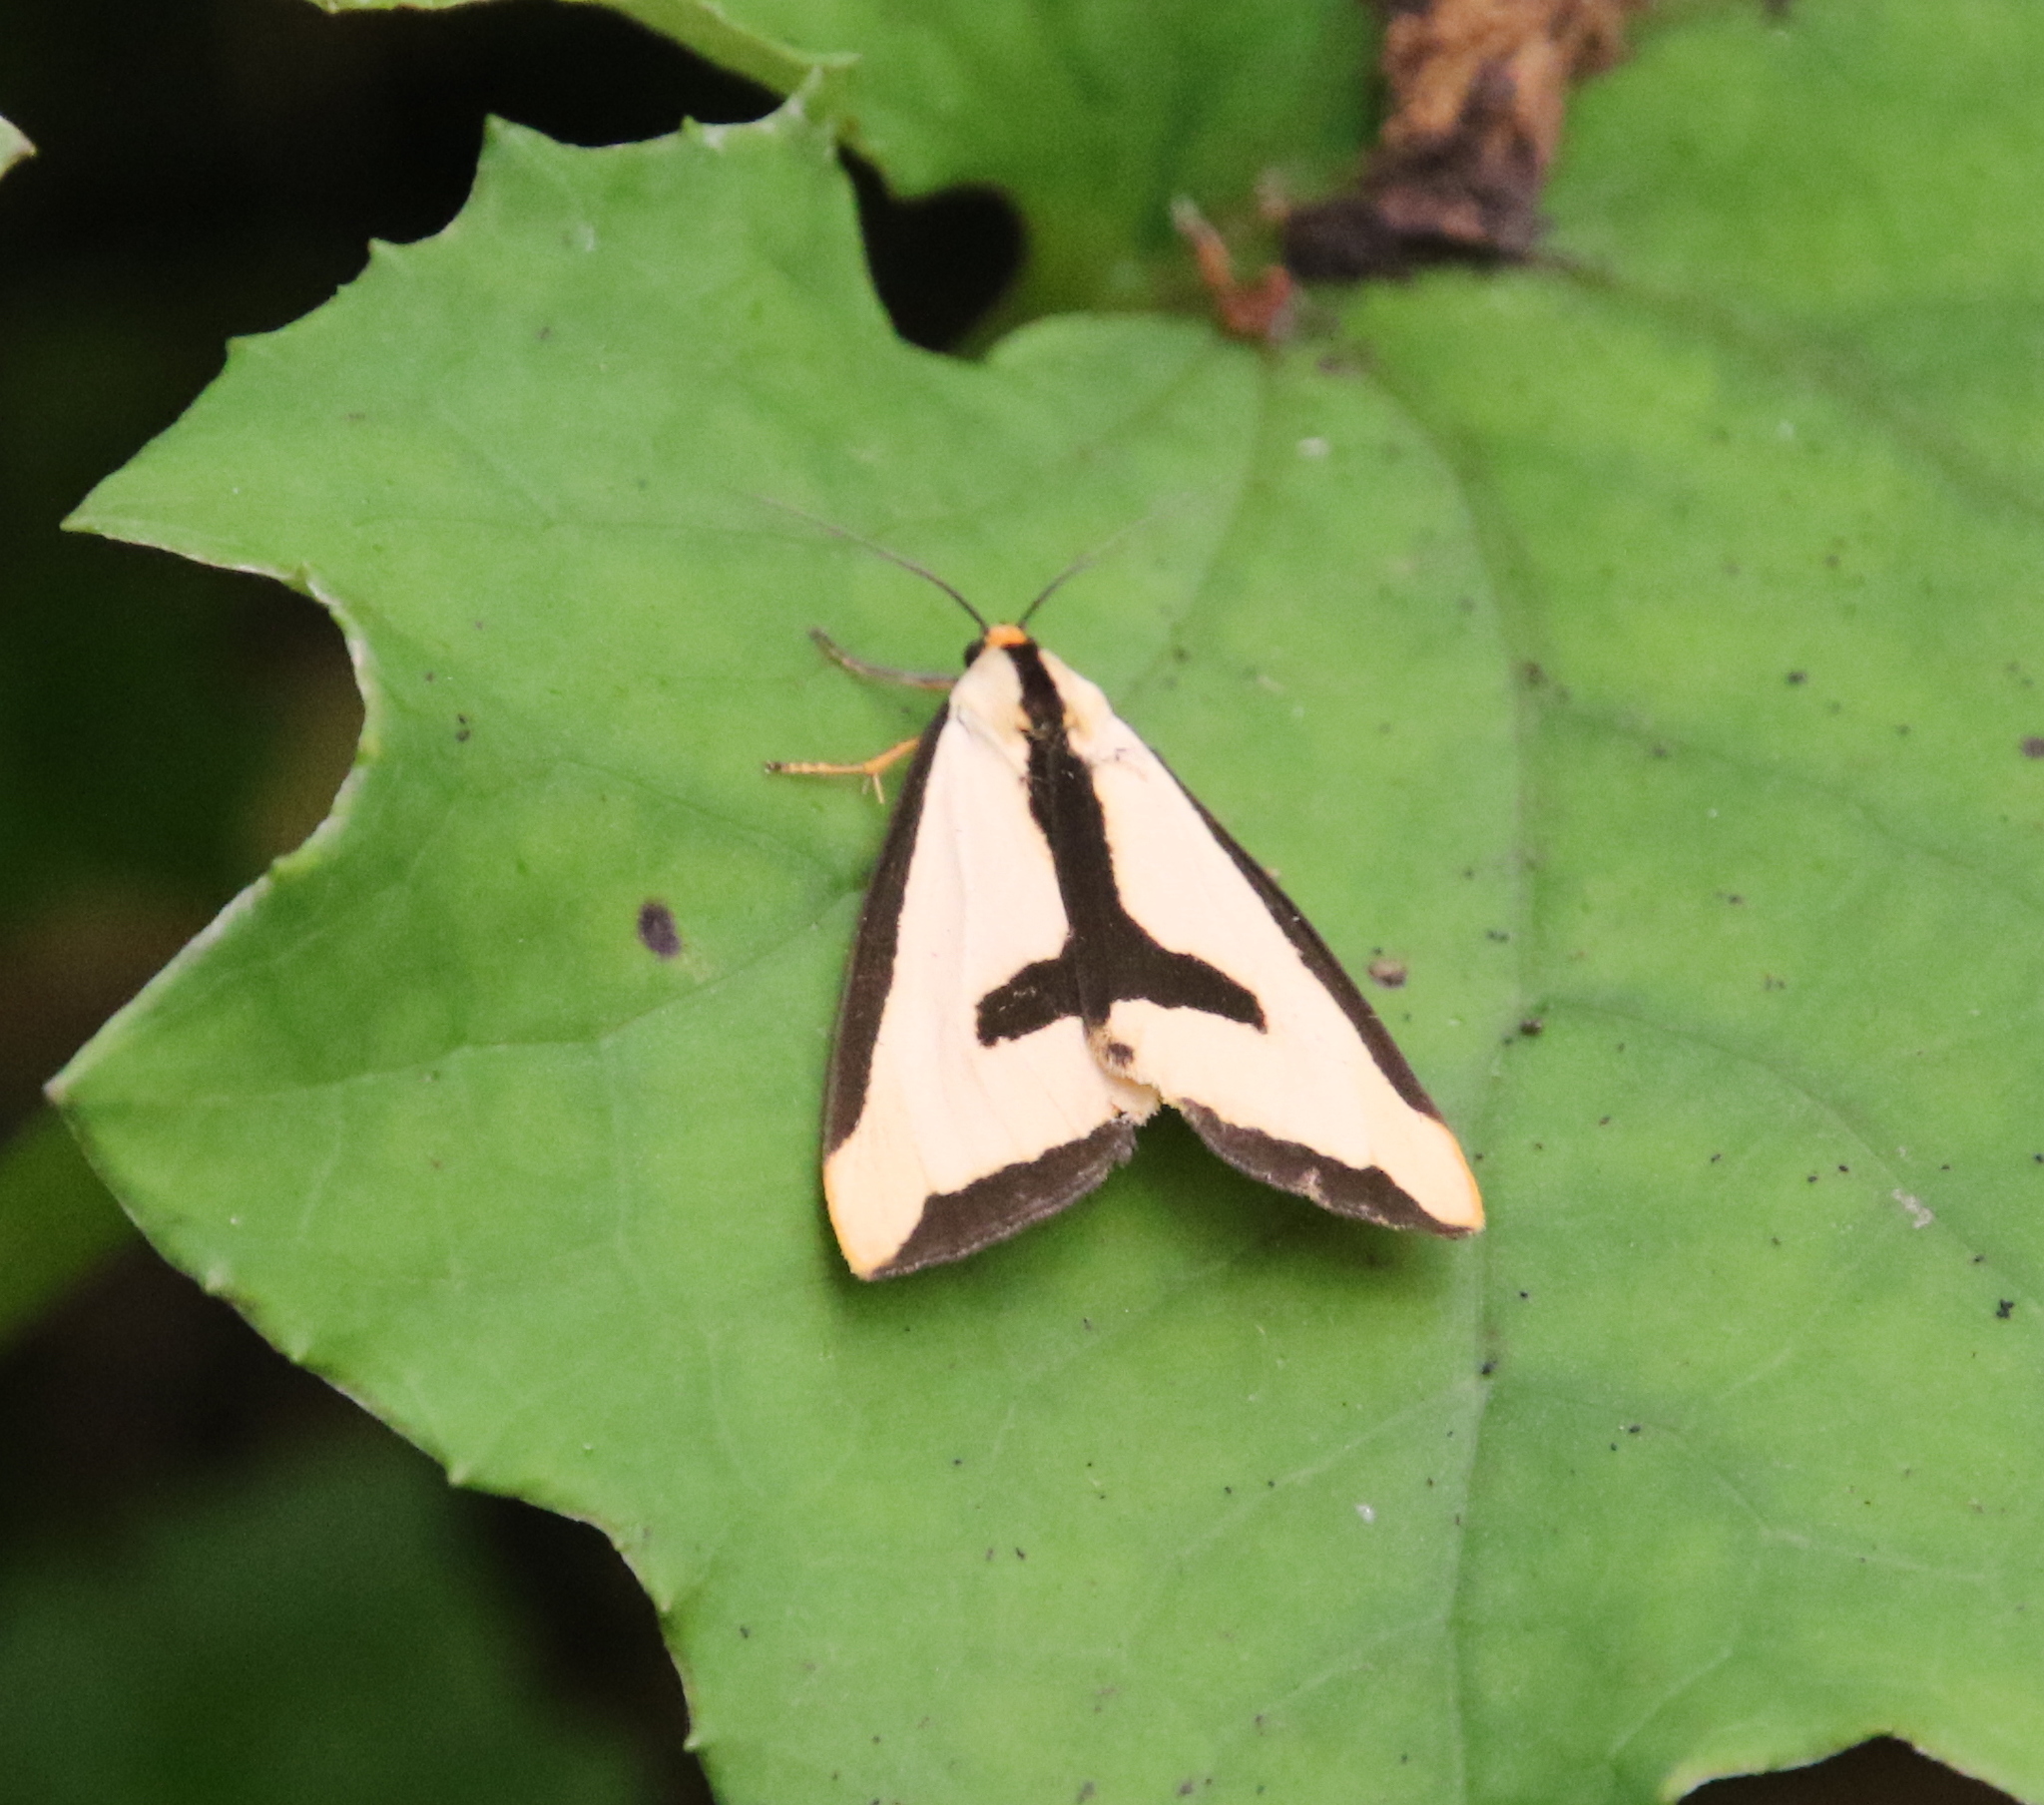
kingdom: Animalia
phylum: Arthropoda
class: Insecta
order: Lepidoptera
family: Erebidae
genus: Haploa
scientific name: Haploa clymene
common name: Clymene moth
